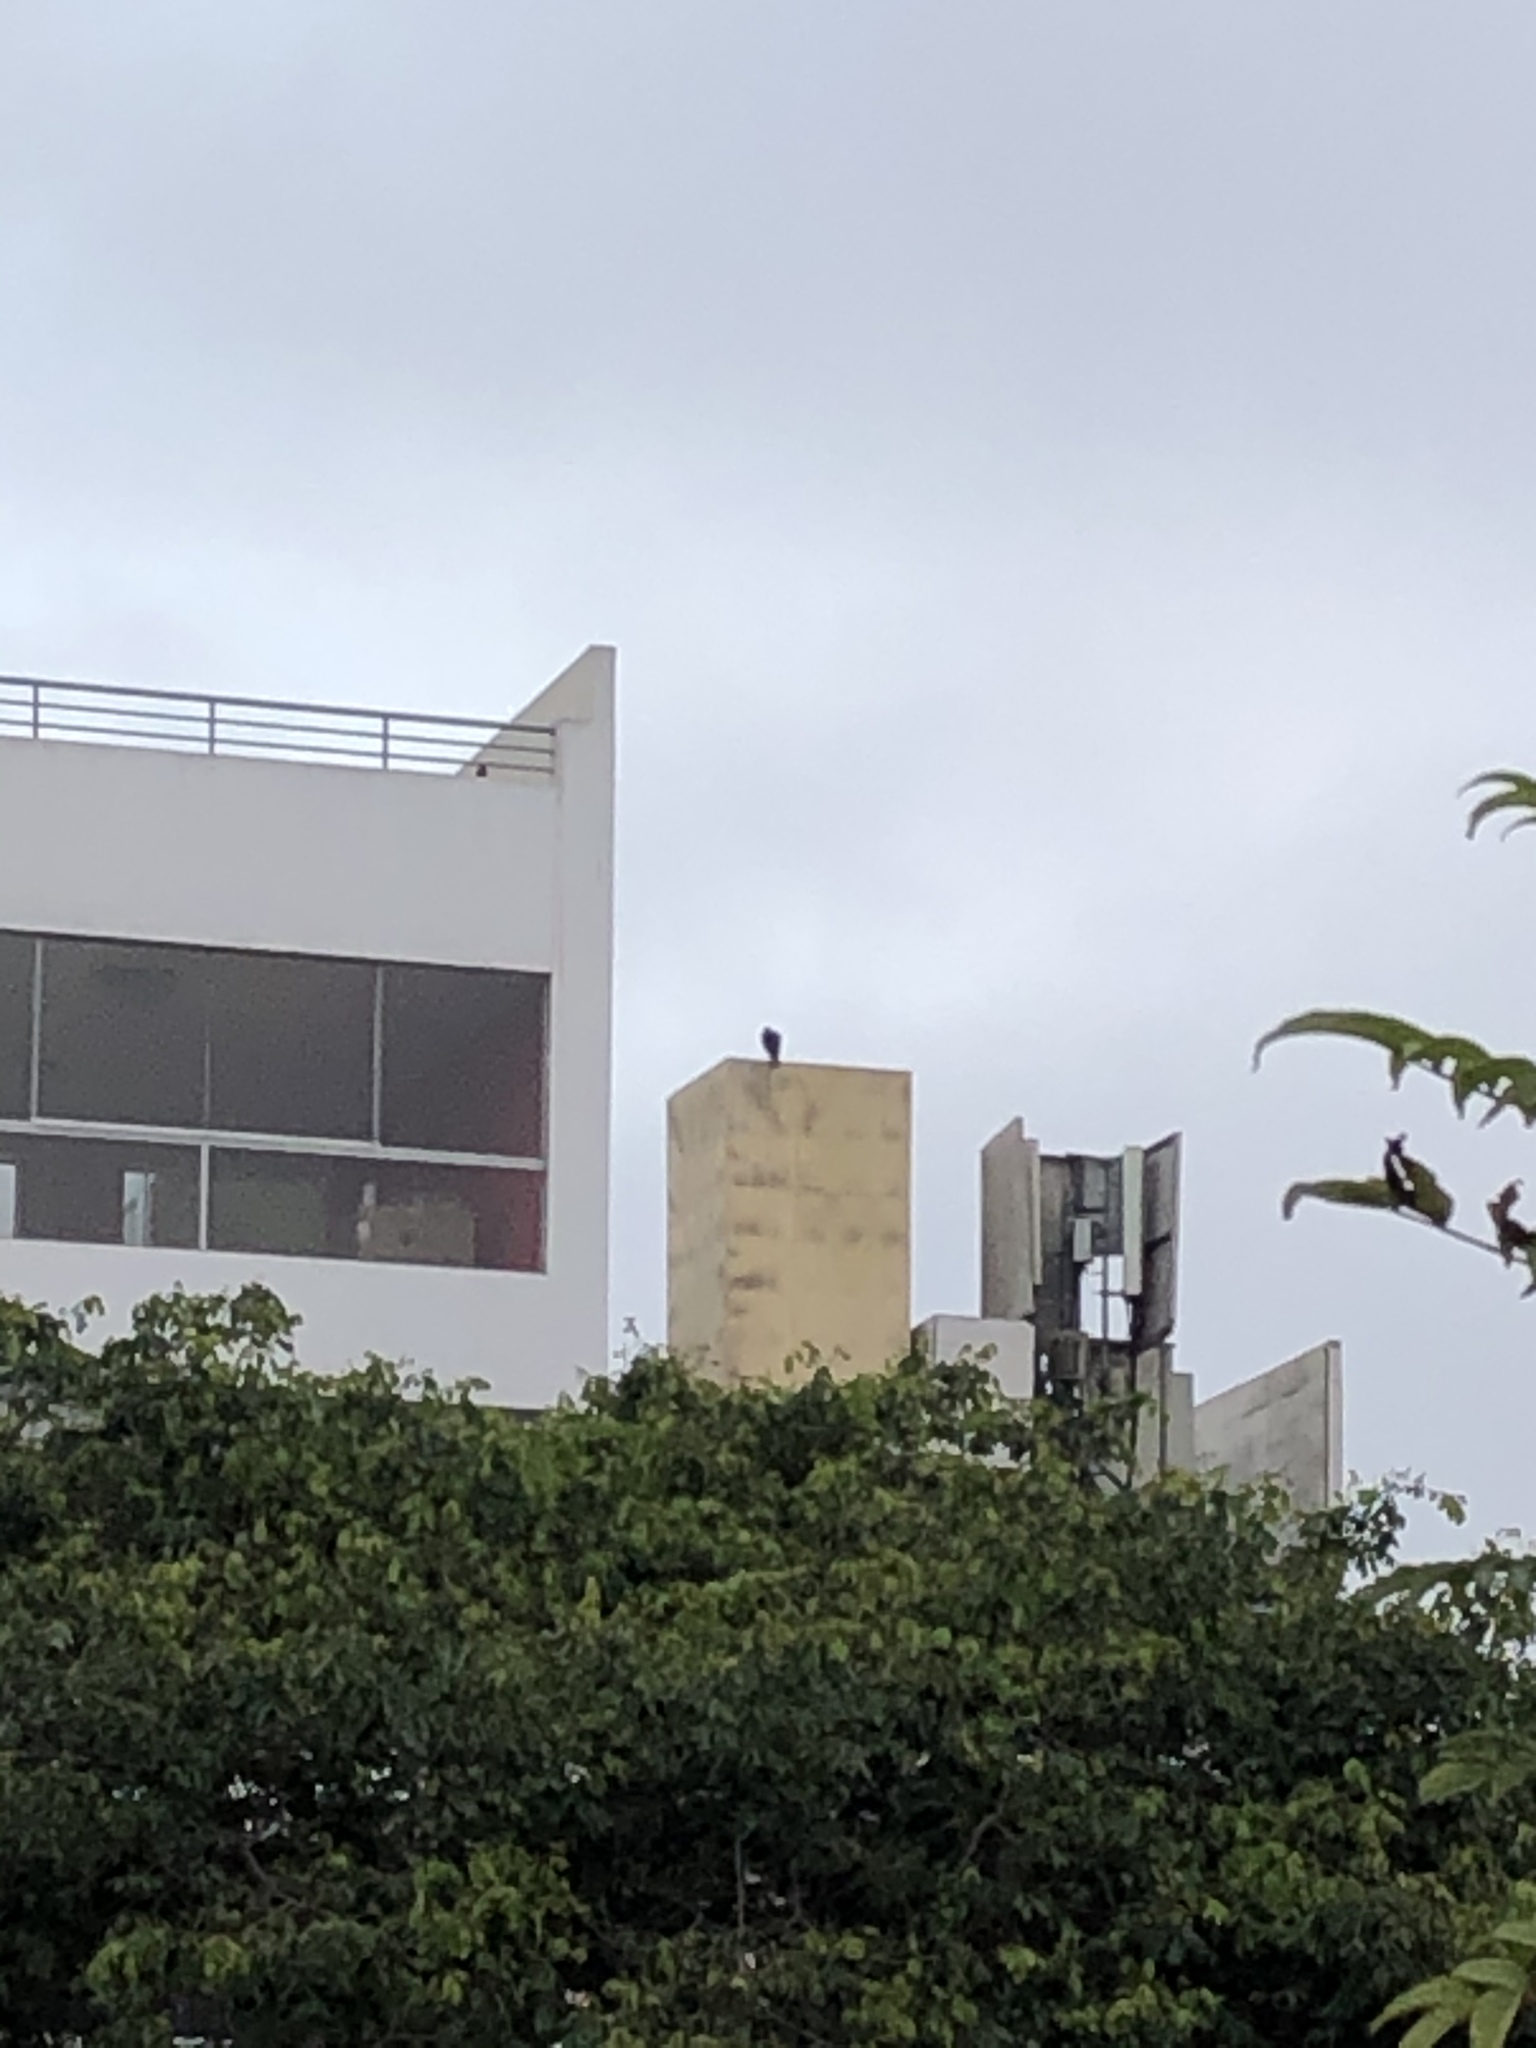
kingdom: Animalia
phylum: Chordata
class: Aves
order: Accipitriformes
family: Accipitridae
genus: Parabuteo
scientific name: Parabuteo unicinctus
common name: Harris's hawk
